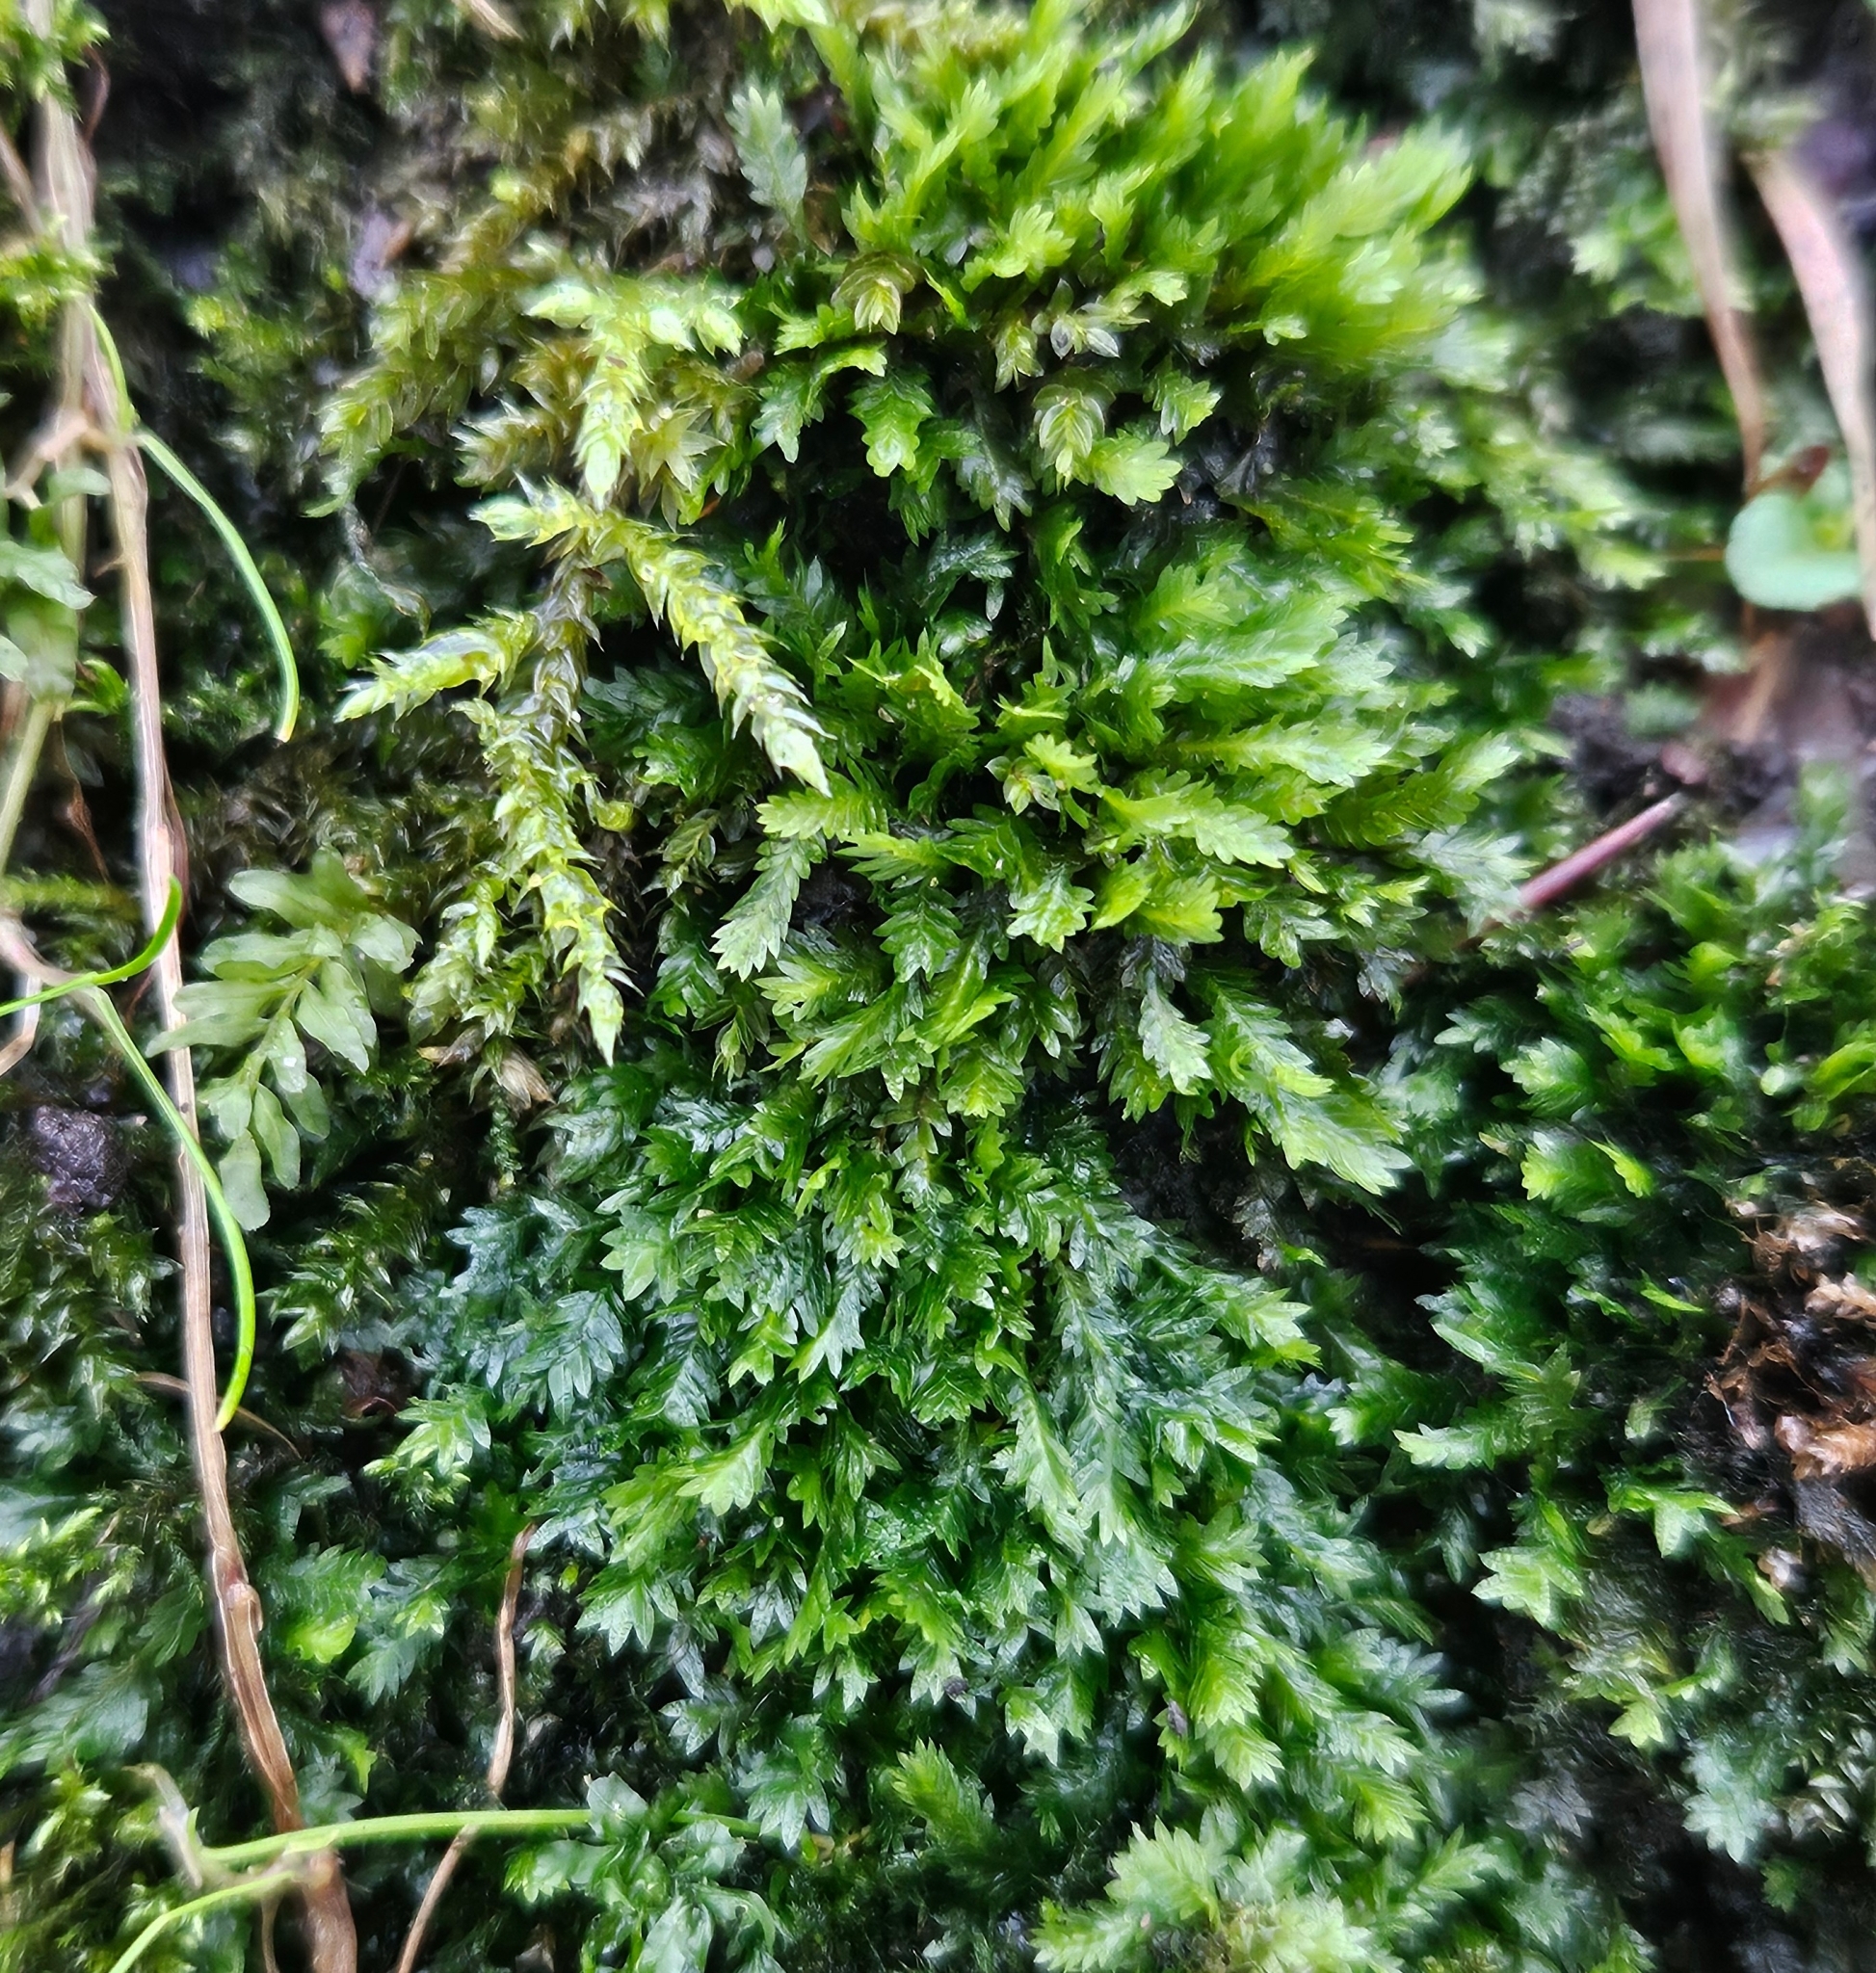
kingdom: Plantae
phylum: Bryophyta
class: Bryopsida
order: Dicranales
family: Fissidentaceae
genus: Fissidens
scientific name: Fissidens taxifolius
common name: Yew-leaved pocket moss
